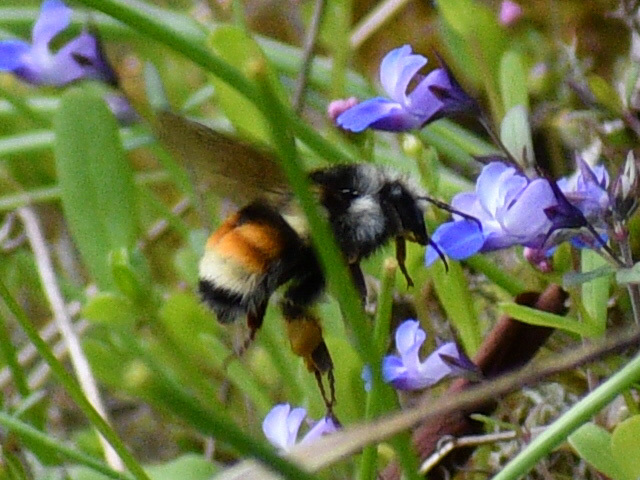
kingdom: Animalia
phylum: Arthropoda
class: Insecta
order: Hymenoptera
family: Apidae
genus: Bombus
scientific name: Bombus vancouverensis
